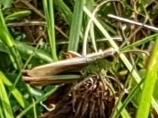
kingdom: Animalia
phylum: Arthropoda
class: Insecta
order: Orthoptera
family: Acrididae
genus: Pseudochorthippus
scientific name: Pseudochorthippus parallelus
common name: Meadow grasshopper
